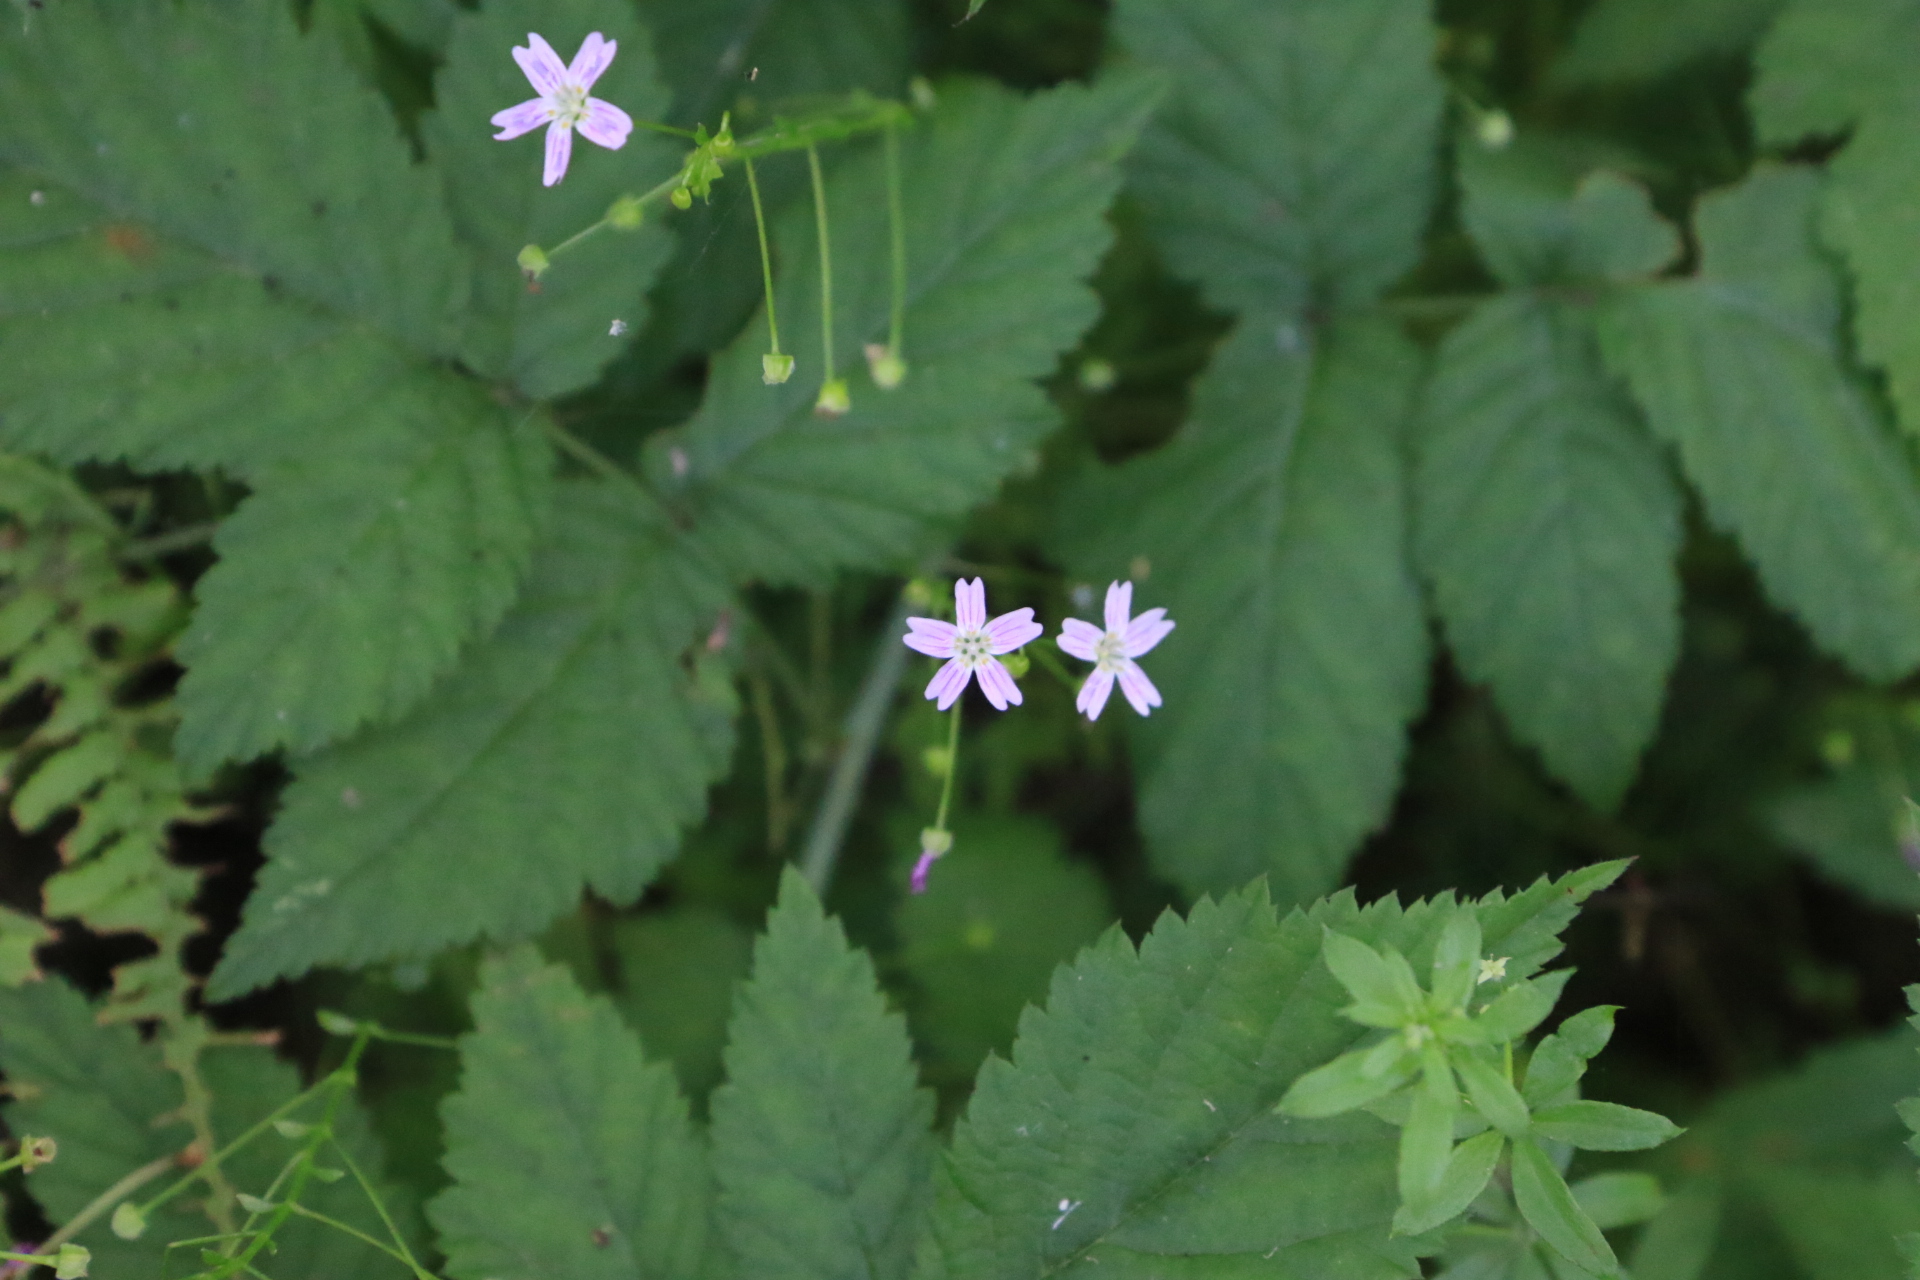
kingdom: Plantae
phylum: Tracheophyta
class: Magnoliopsida
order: Caryophyllales
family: Montiaceae
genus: Claytonia
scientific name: Claytonia sibirica
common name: Pink purslane
